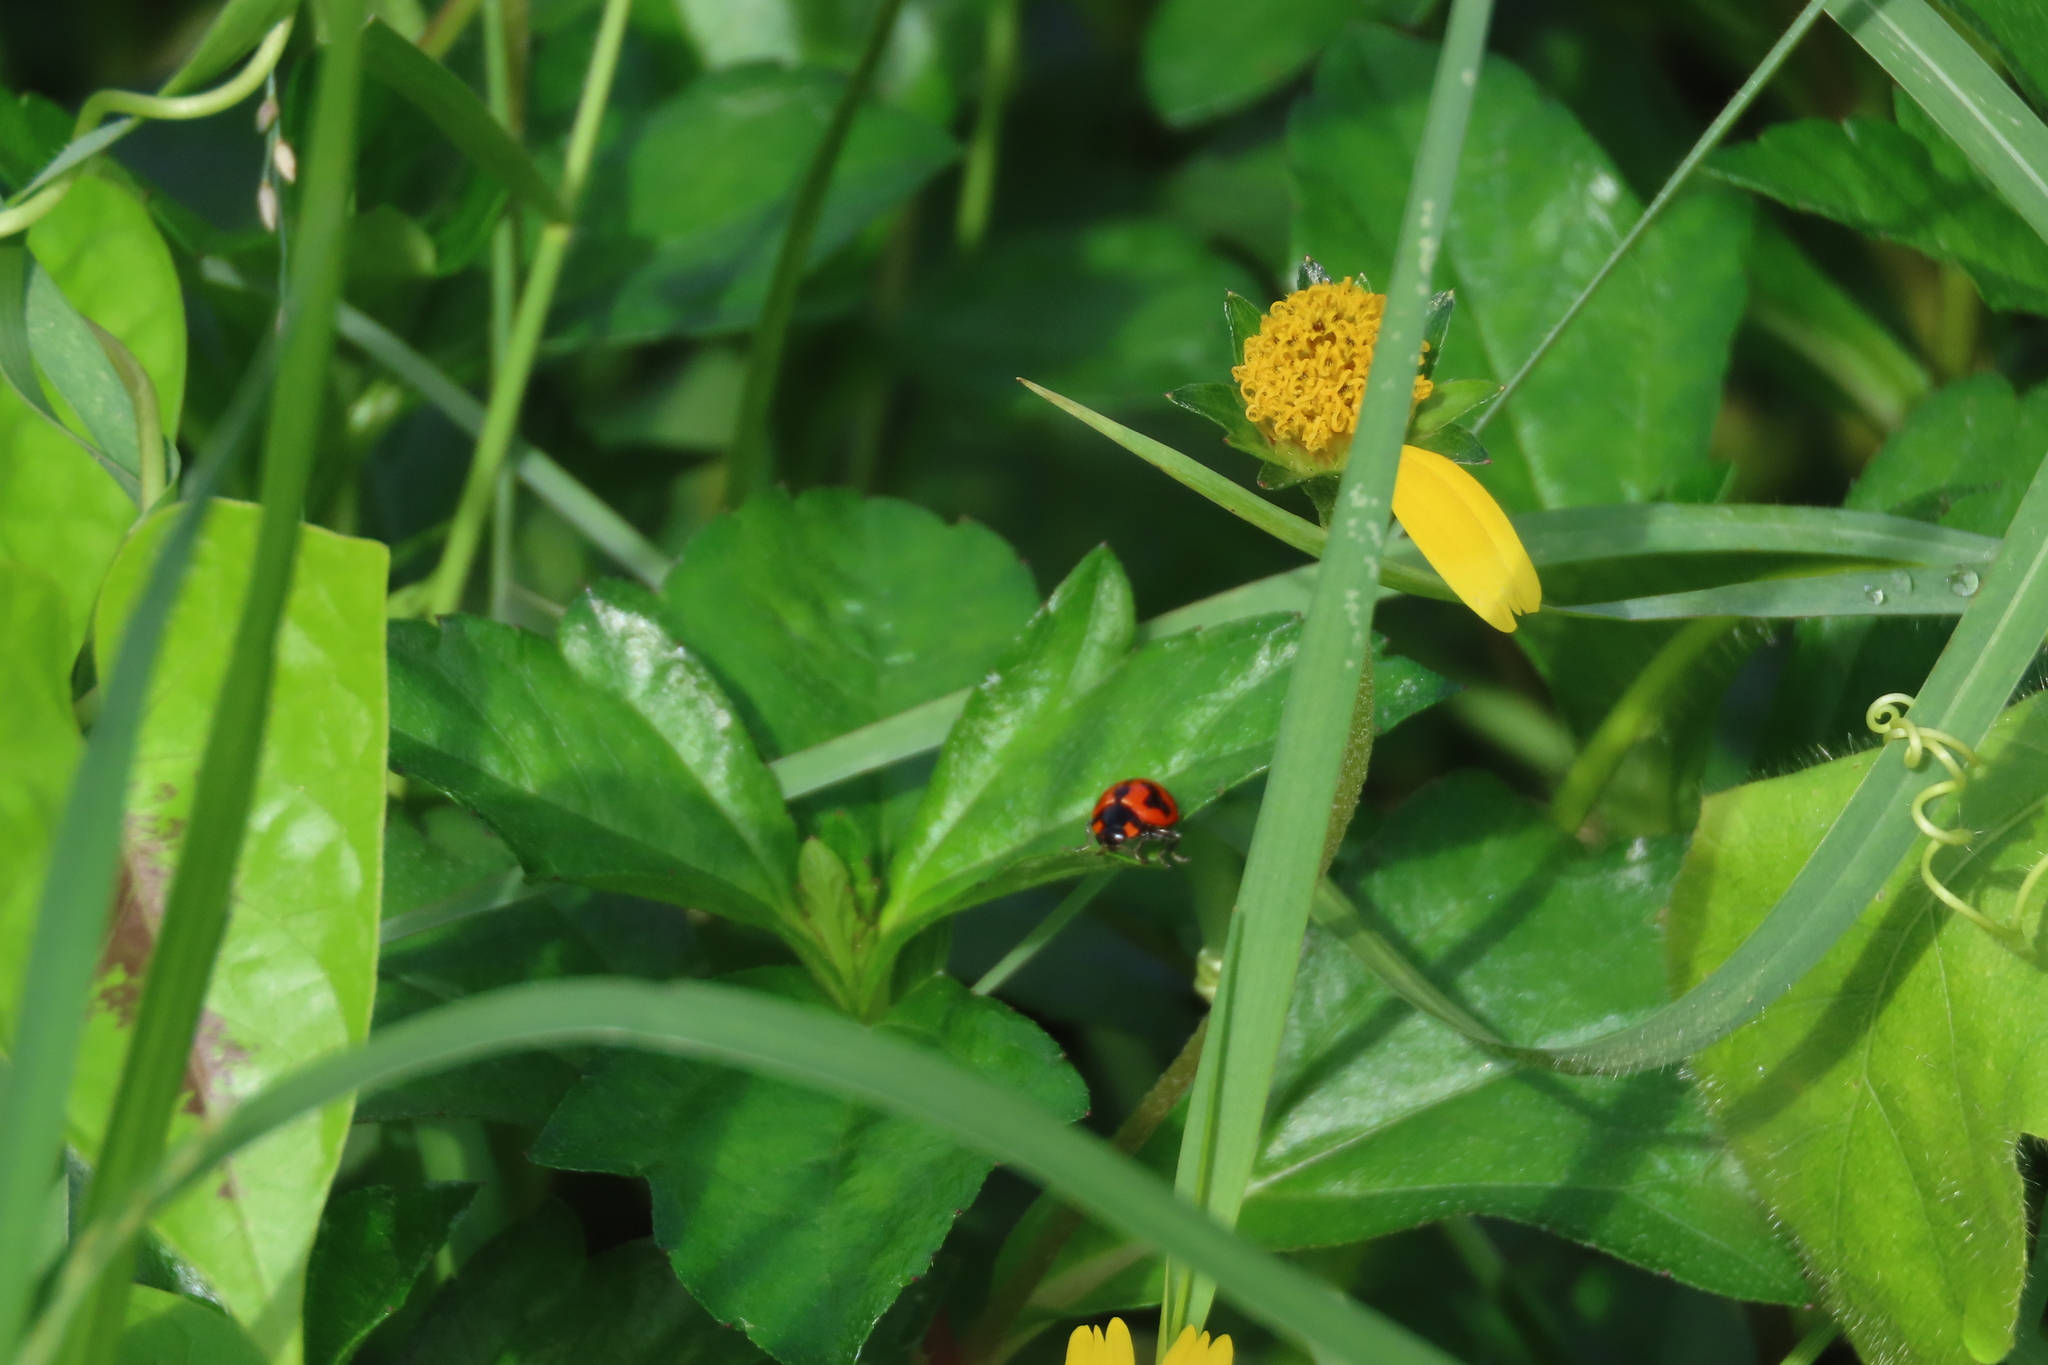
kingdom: Animalia
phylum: Arthropoda
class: Insecta
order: Coleoptera
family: Coccinellidae
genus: Coccinella
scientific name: Coccinella transversalis
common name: Transverse lady beetle
